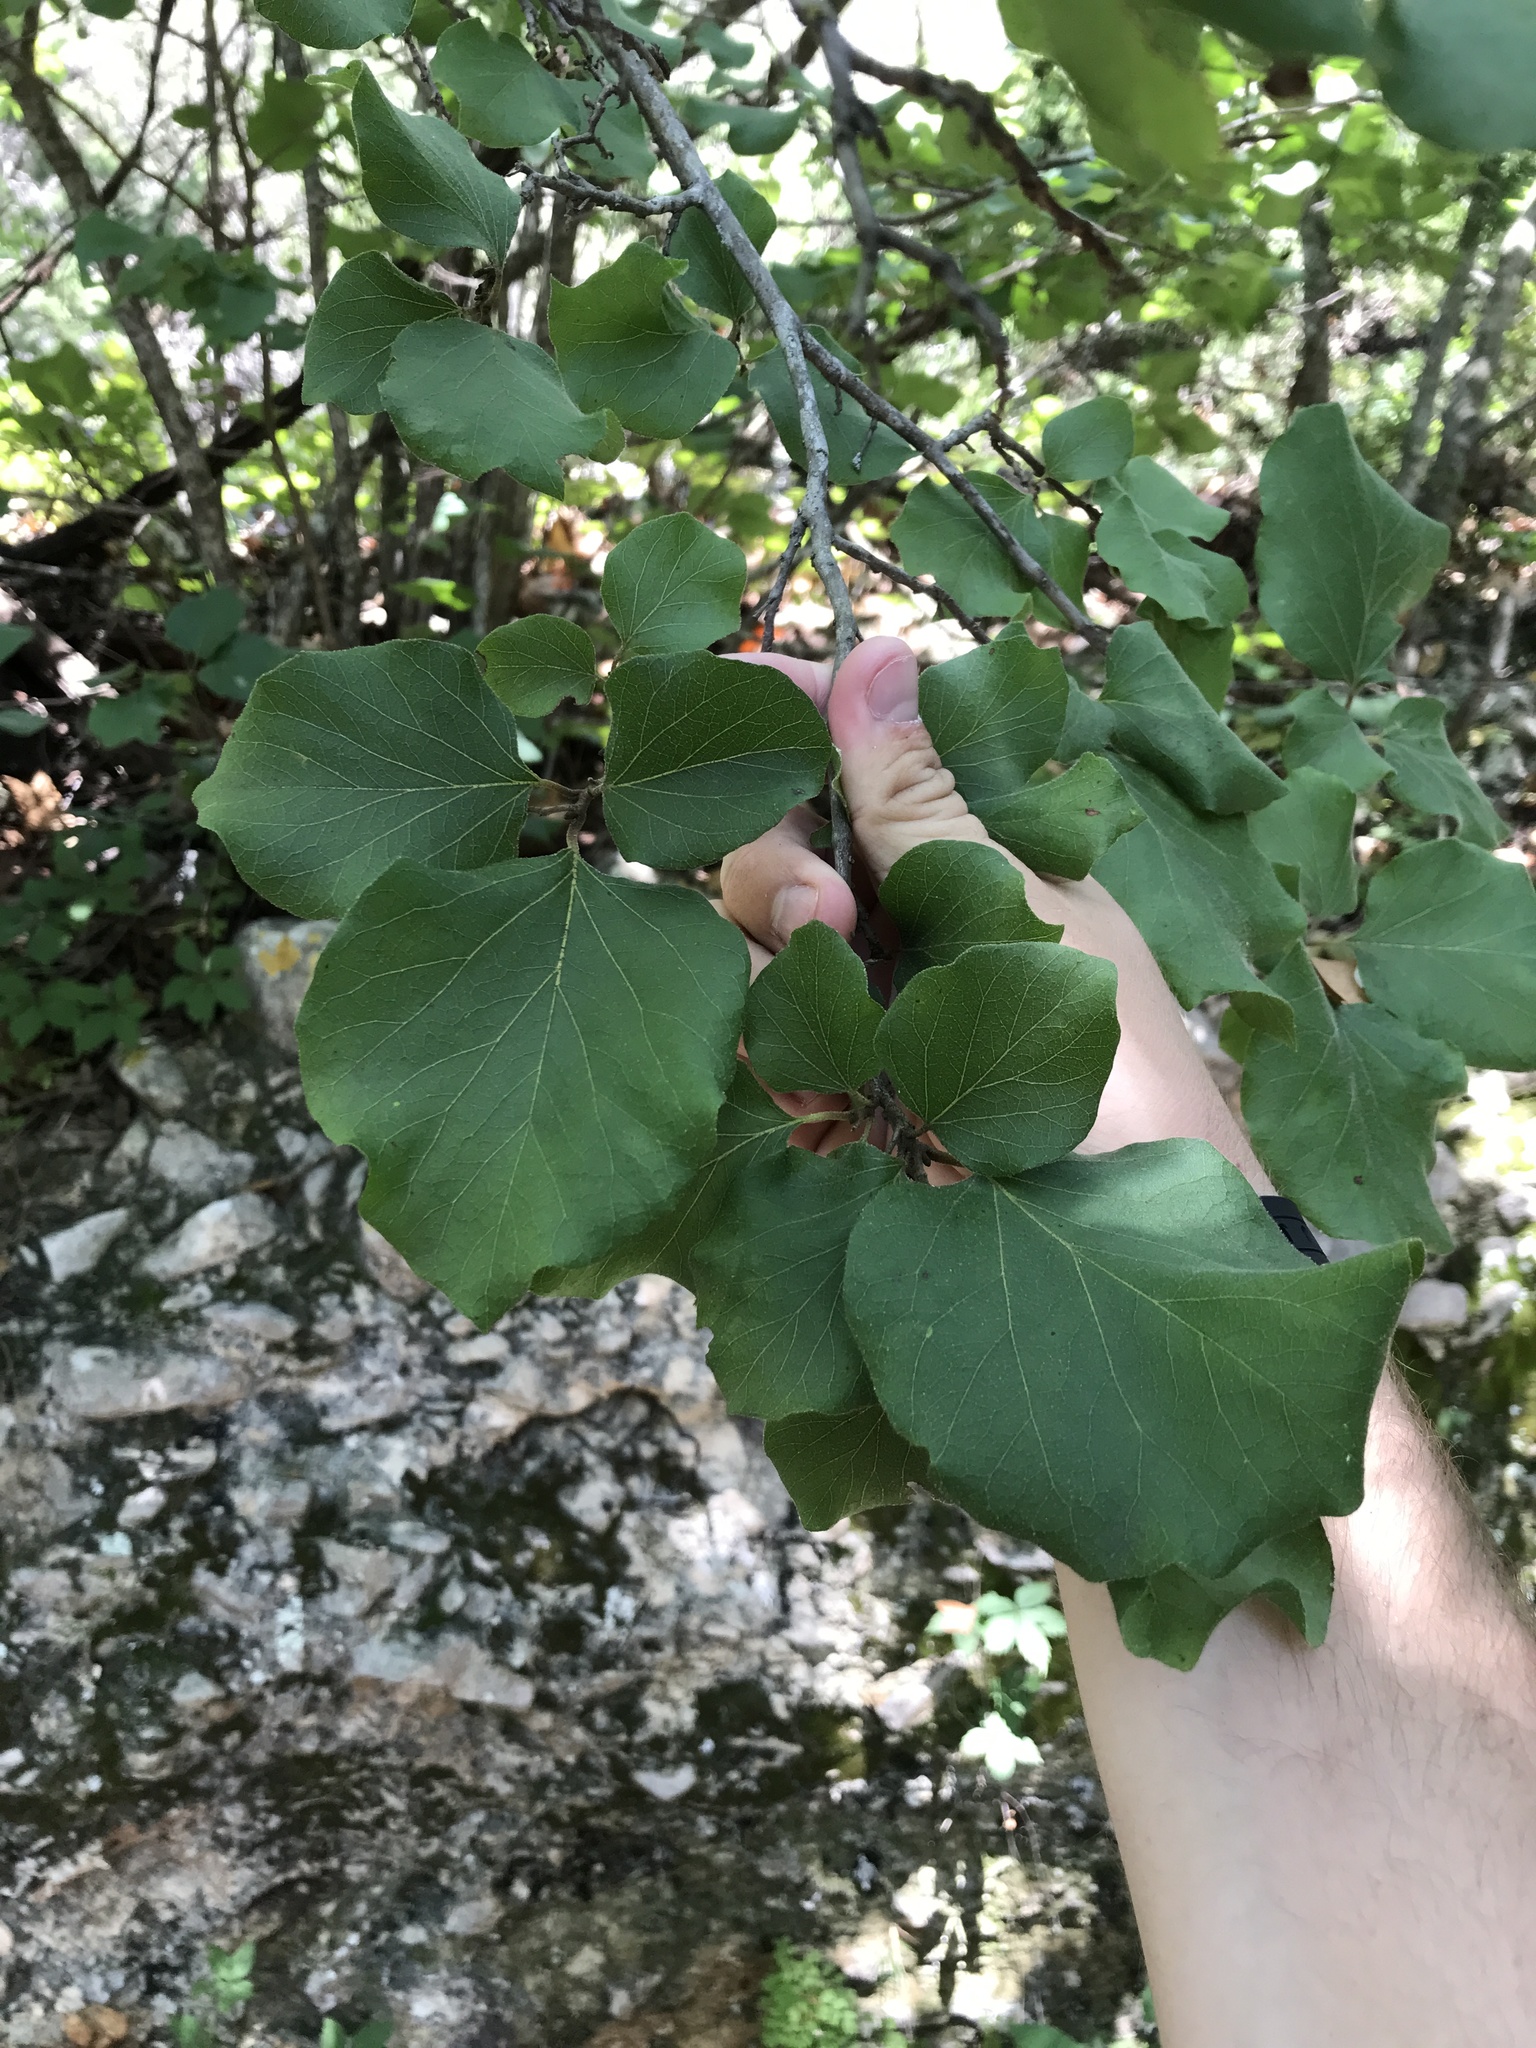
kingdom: Plantae
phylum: Tracheophyta
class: Magnoliopsida
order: Ericales
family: Styracaceae
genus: Styrax
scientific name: Styrax platanifolius
